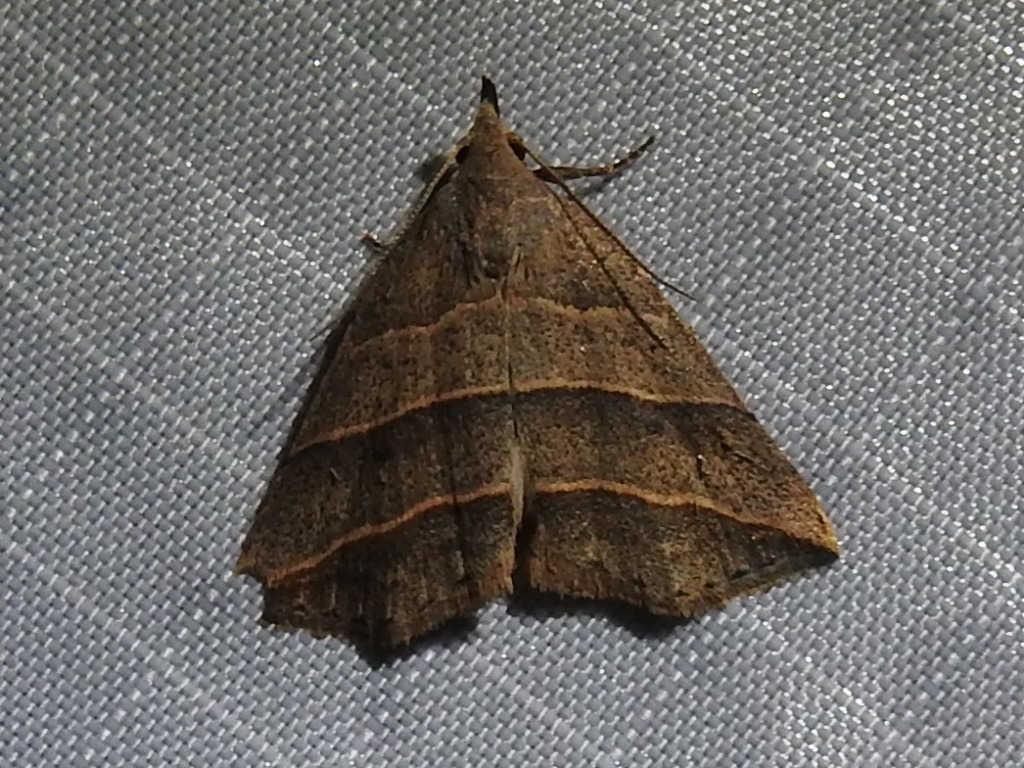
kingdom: Animalia
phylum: Arthropoda
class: Insecta
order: Lepidoptera
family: Erebidae
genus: Colobochyla
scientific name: Colobochyla interpuncta
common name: Yellow-lined owlet
